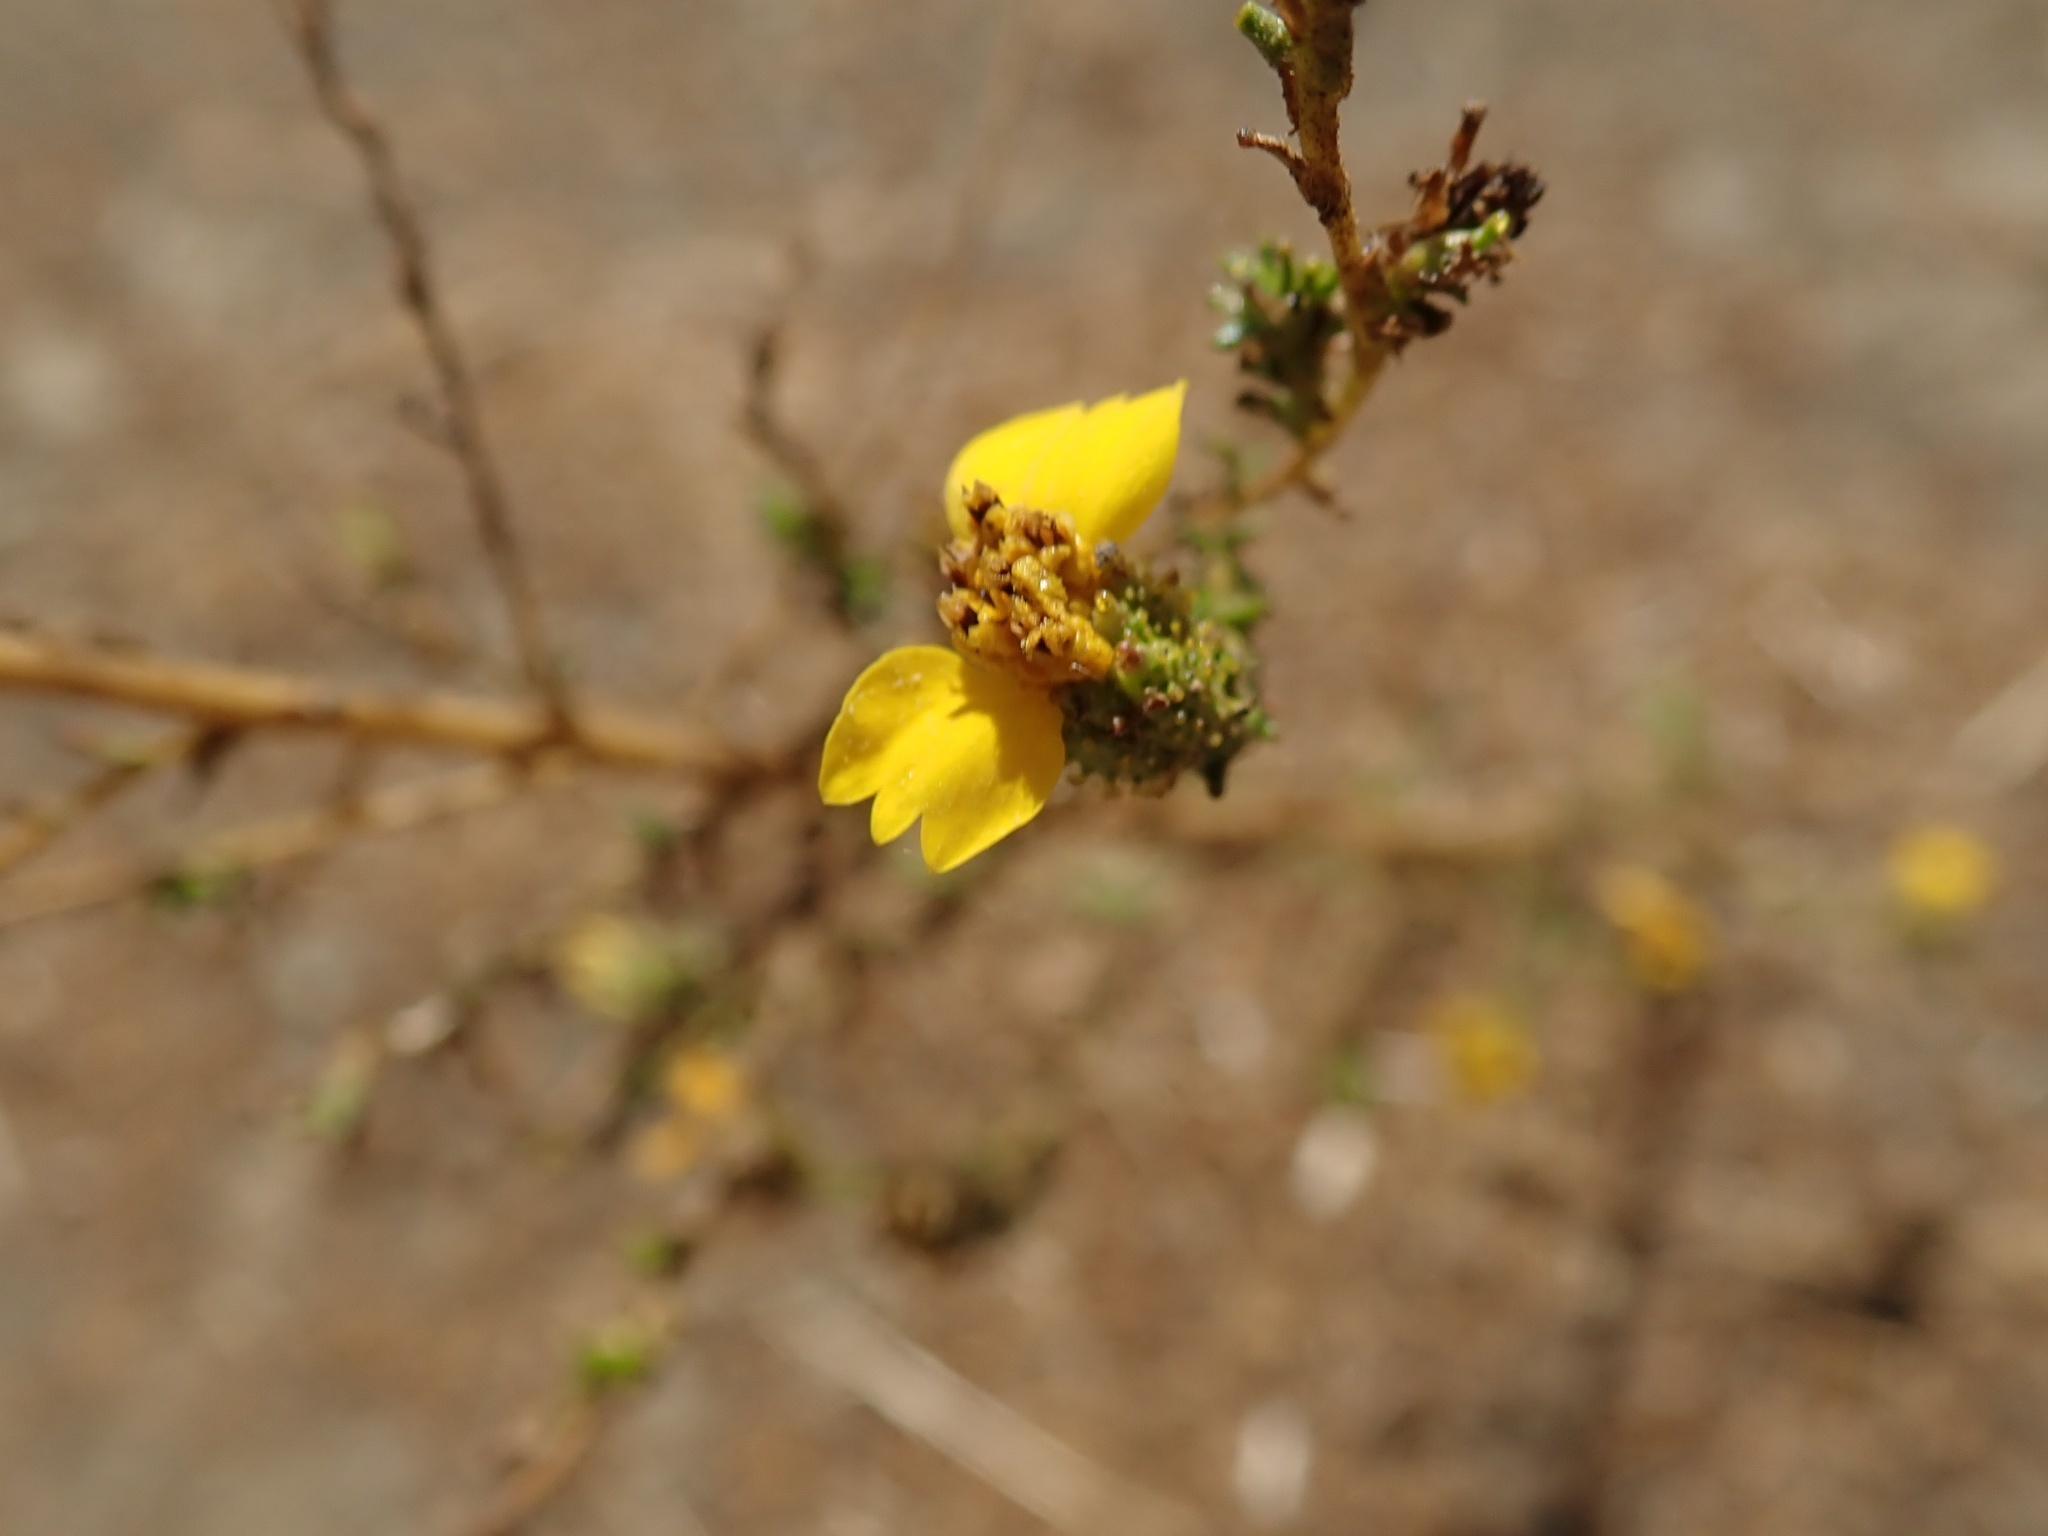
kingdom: Plantae
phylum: Tracheophyta
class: Magnoliopsida
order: Asterales
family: Asteraceae
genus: Holocarpha
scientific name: Holocarpha virgata
